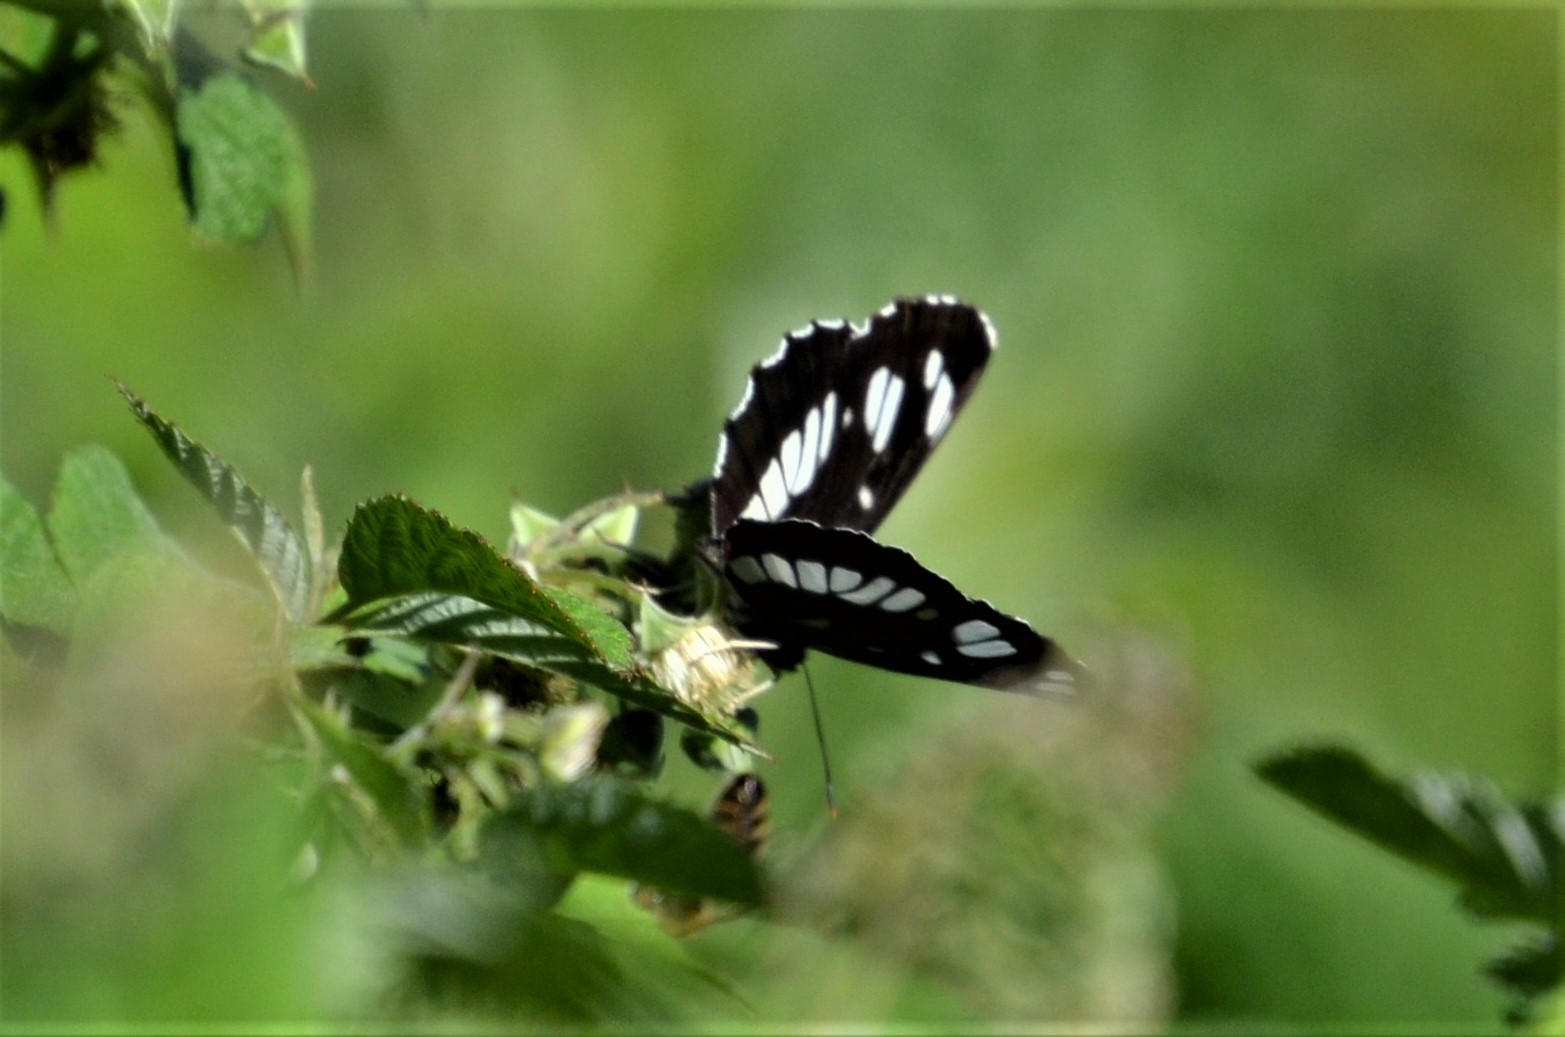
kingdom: Animalia
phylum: Arthropoda
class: Insecta
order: Lepidoptera
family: Nymphalidae
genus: Neptis
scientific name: Neptis rivularis
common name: Hungarian glider
